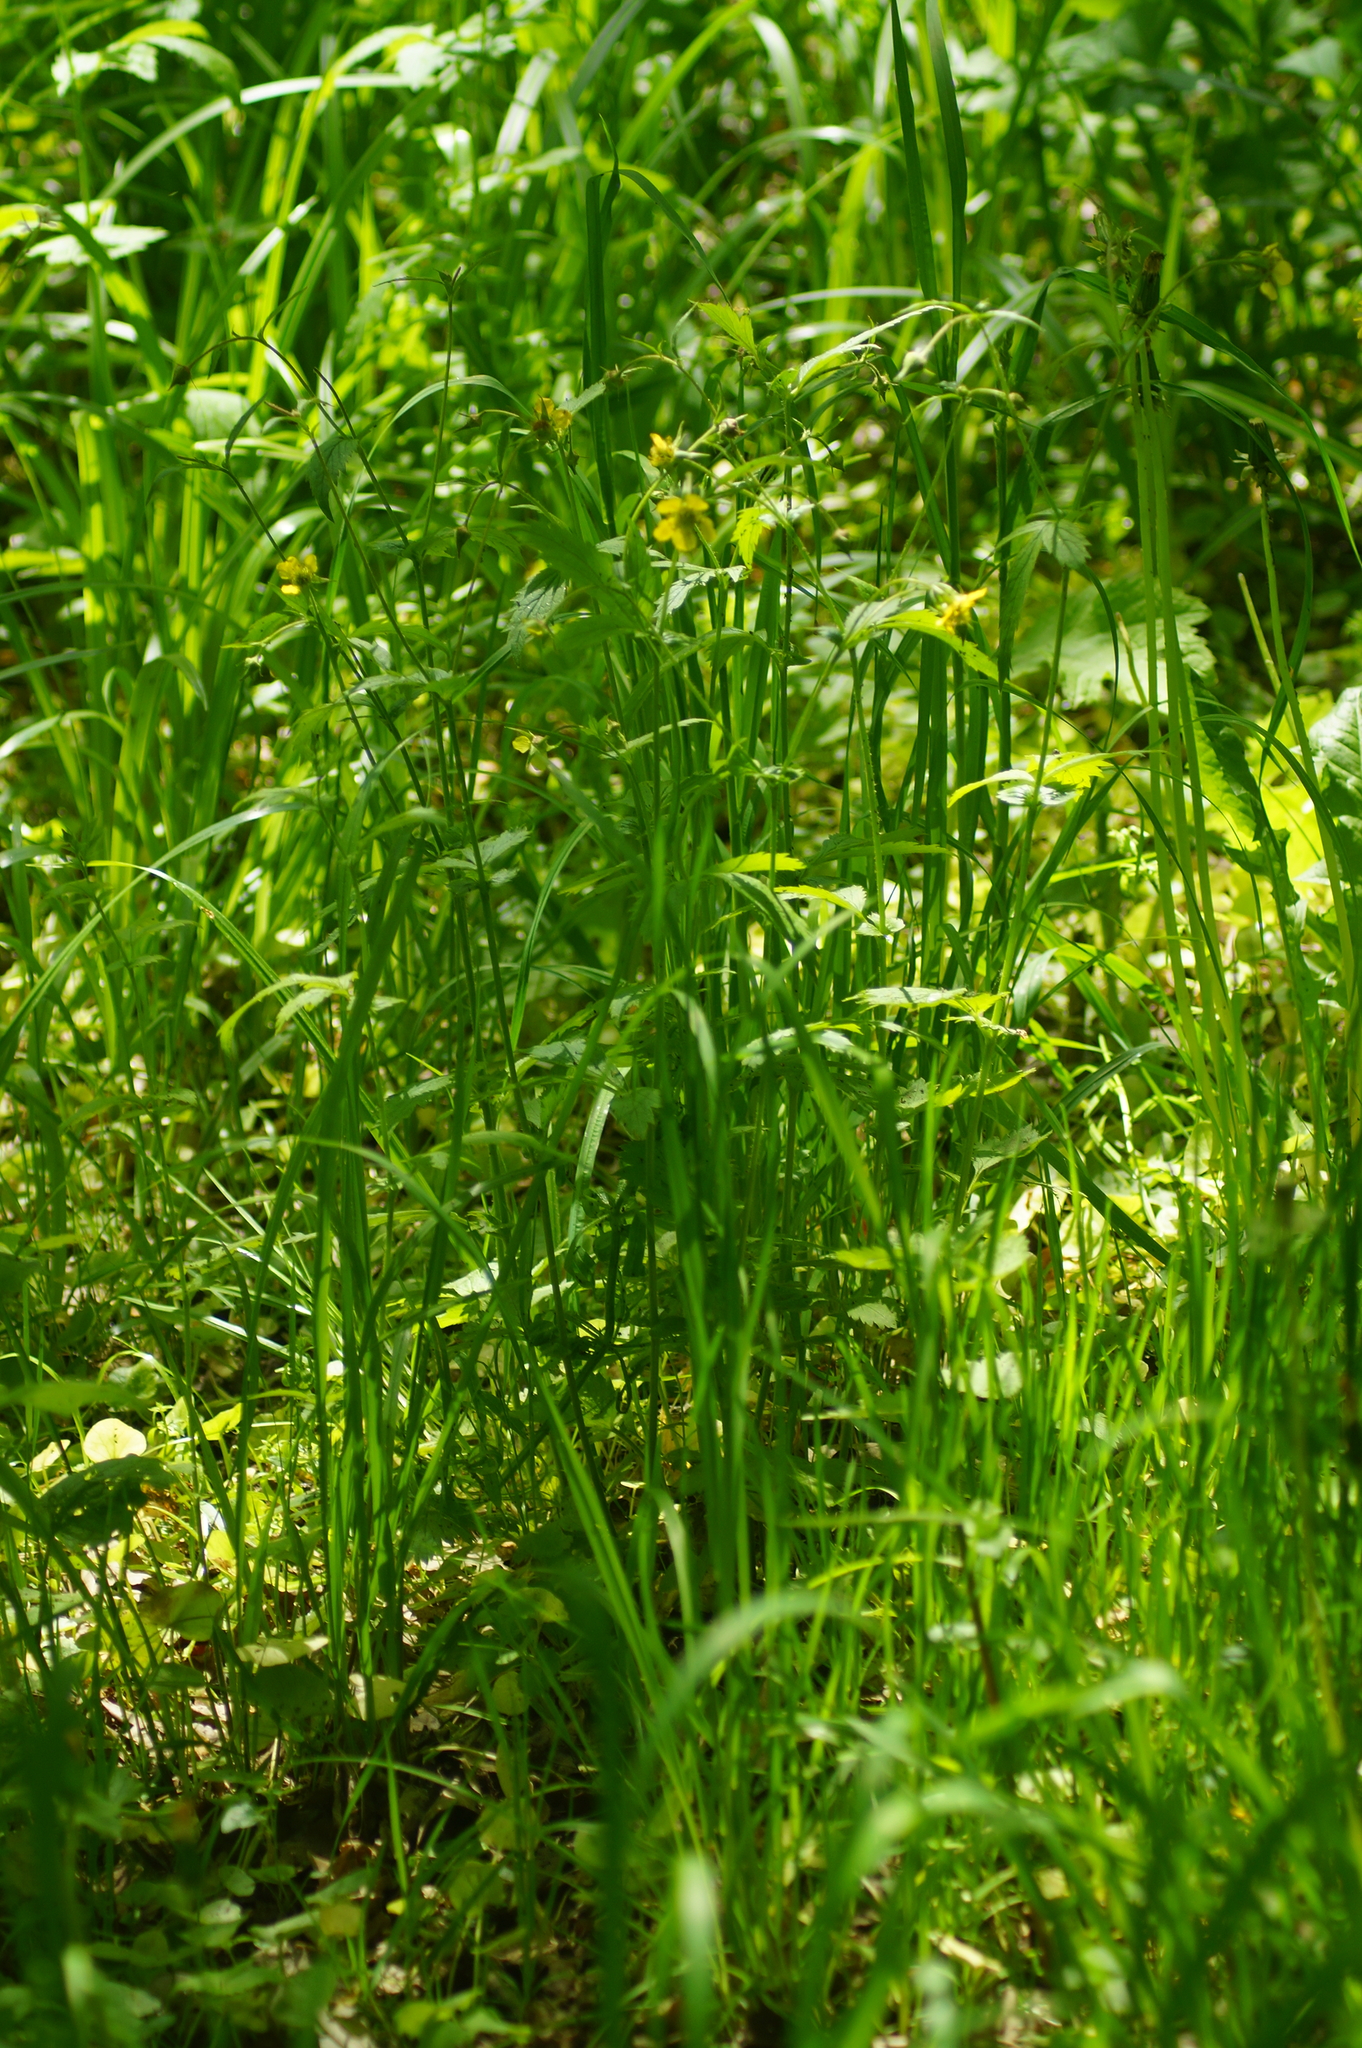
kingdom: Plantae
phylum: Tracheophyta
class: Magnoliopsida
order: Rosales
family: Rosaceae
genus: Geum
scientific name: Geum urbanum
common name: Wood avens
